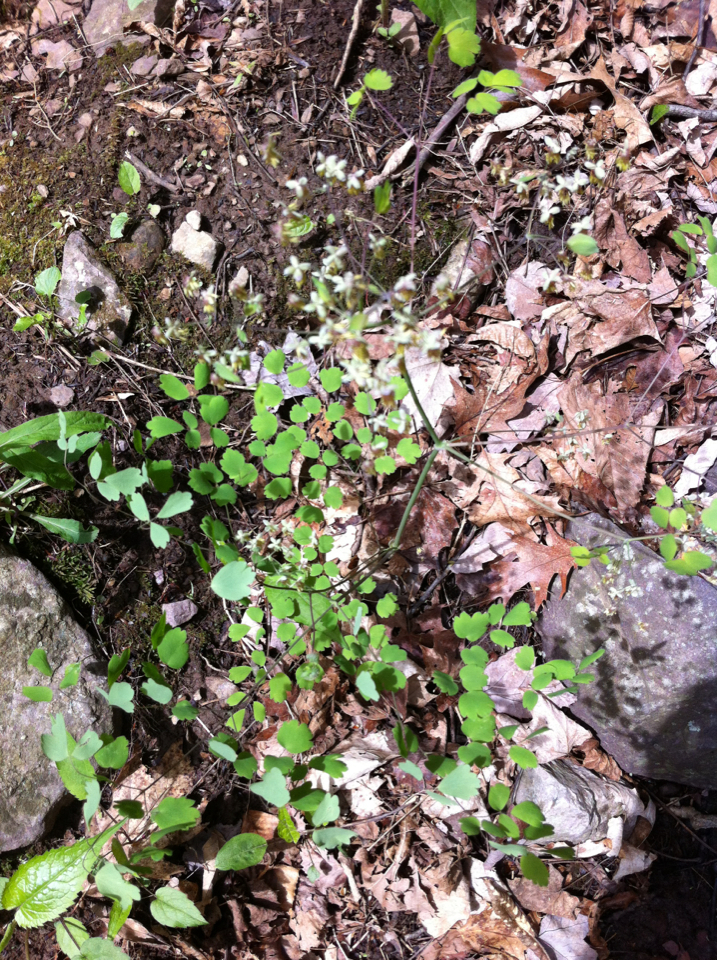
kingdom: Plantae
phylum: Tracheophyta
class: Magnoliopsida
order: Ranunculales
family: Ranunculaceae
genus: Thalictrum
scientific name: Thalictrum dioicum
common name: Early meadow-rue
